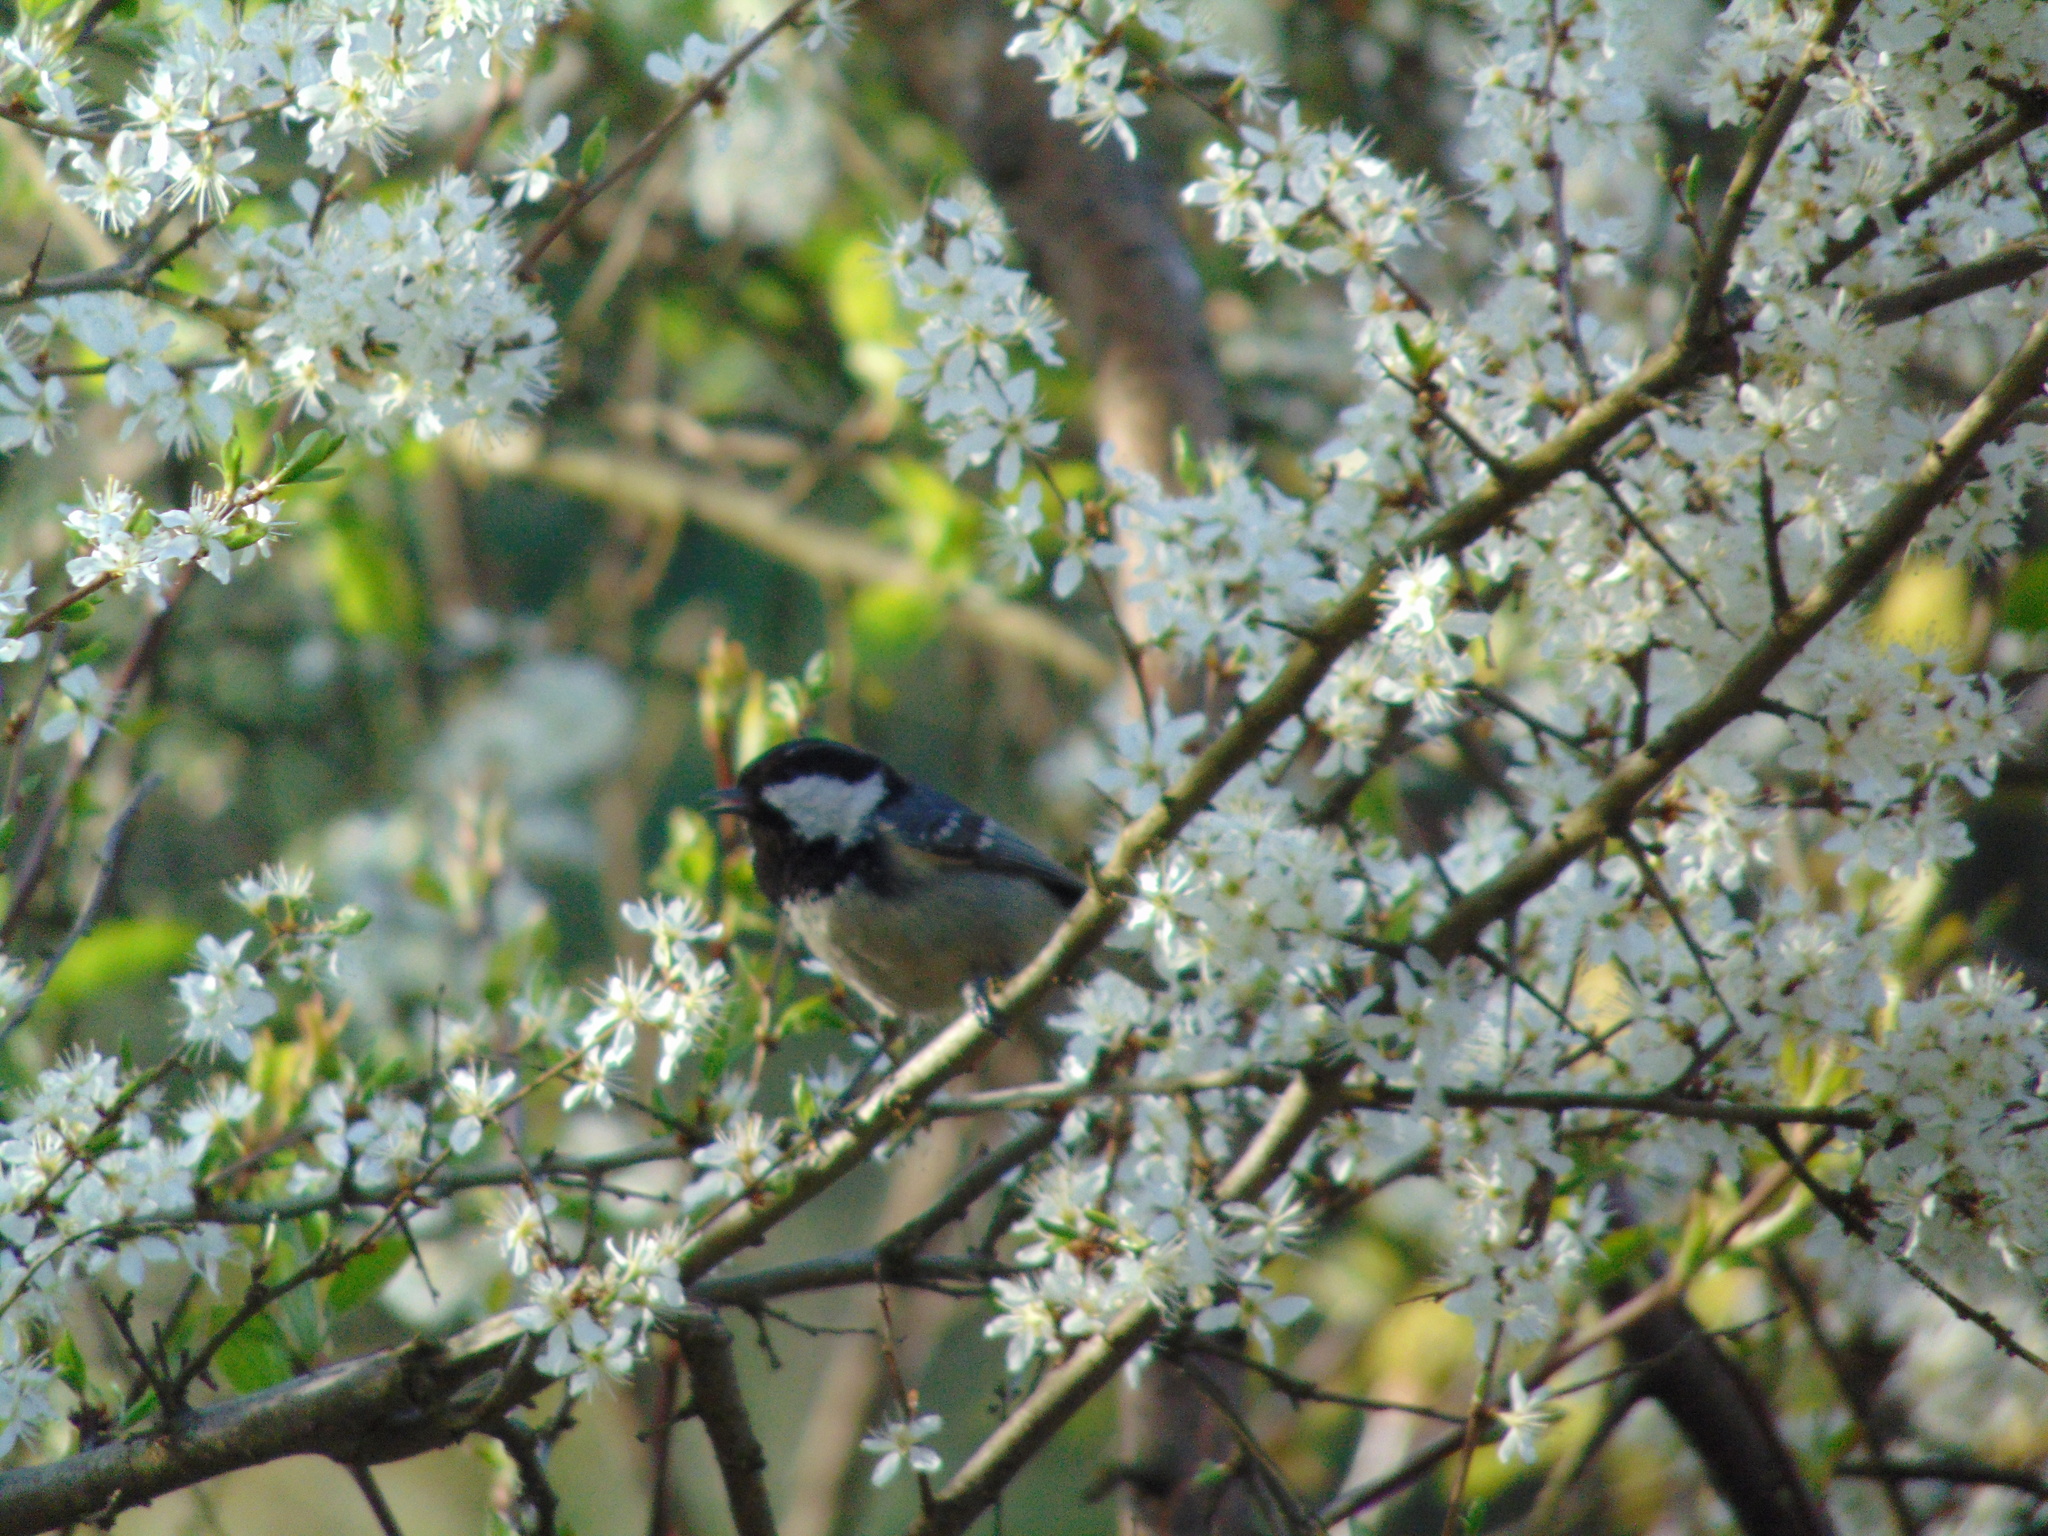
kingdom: Animalia
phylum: Chordata
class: Aves
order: Passeriformes
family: Paridae
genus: Periparus
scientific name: Periparus ater
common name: Coal tit
